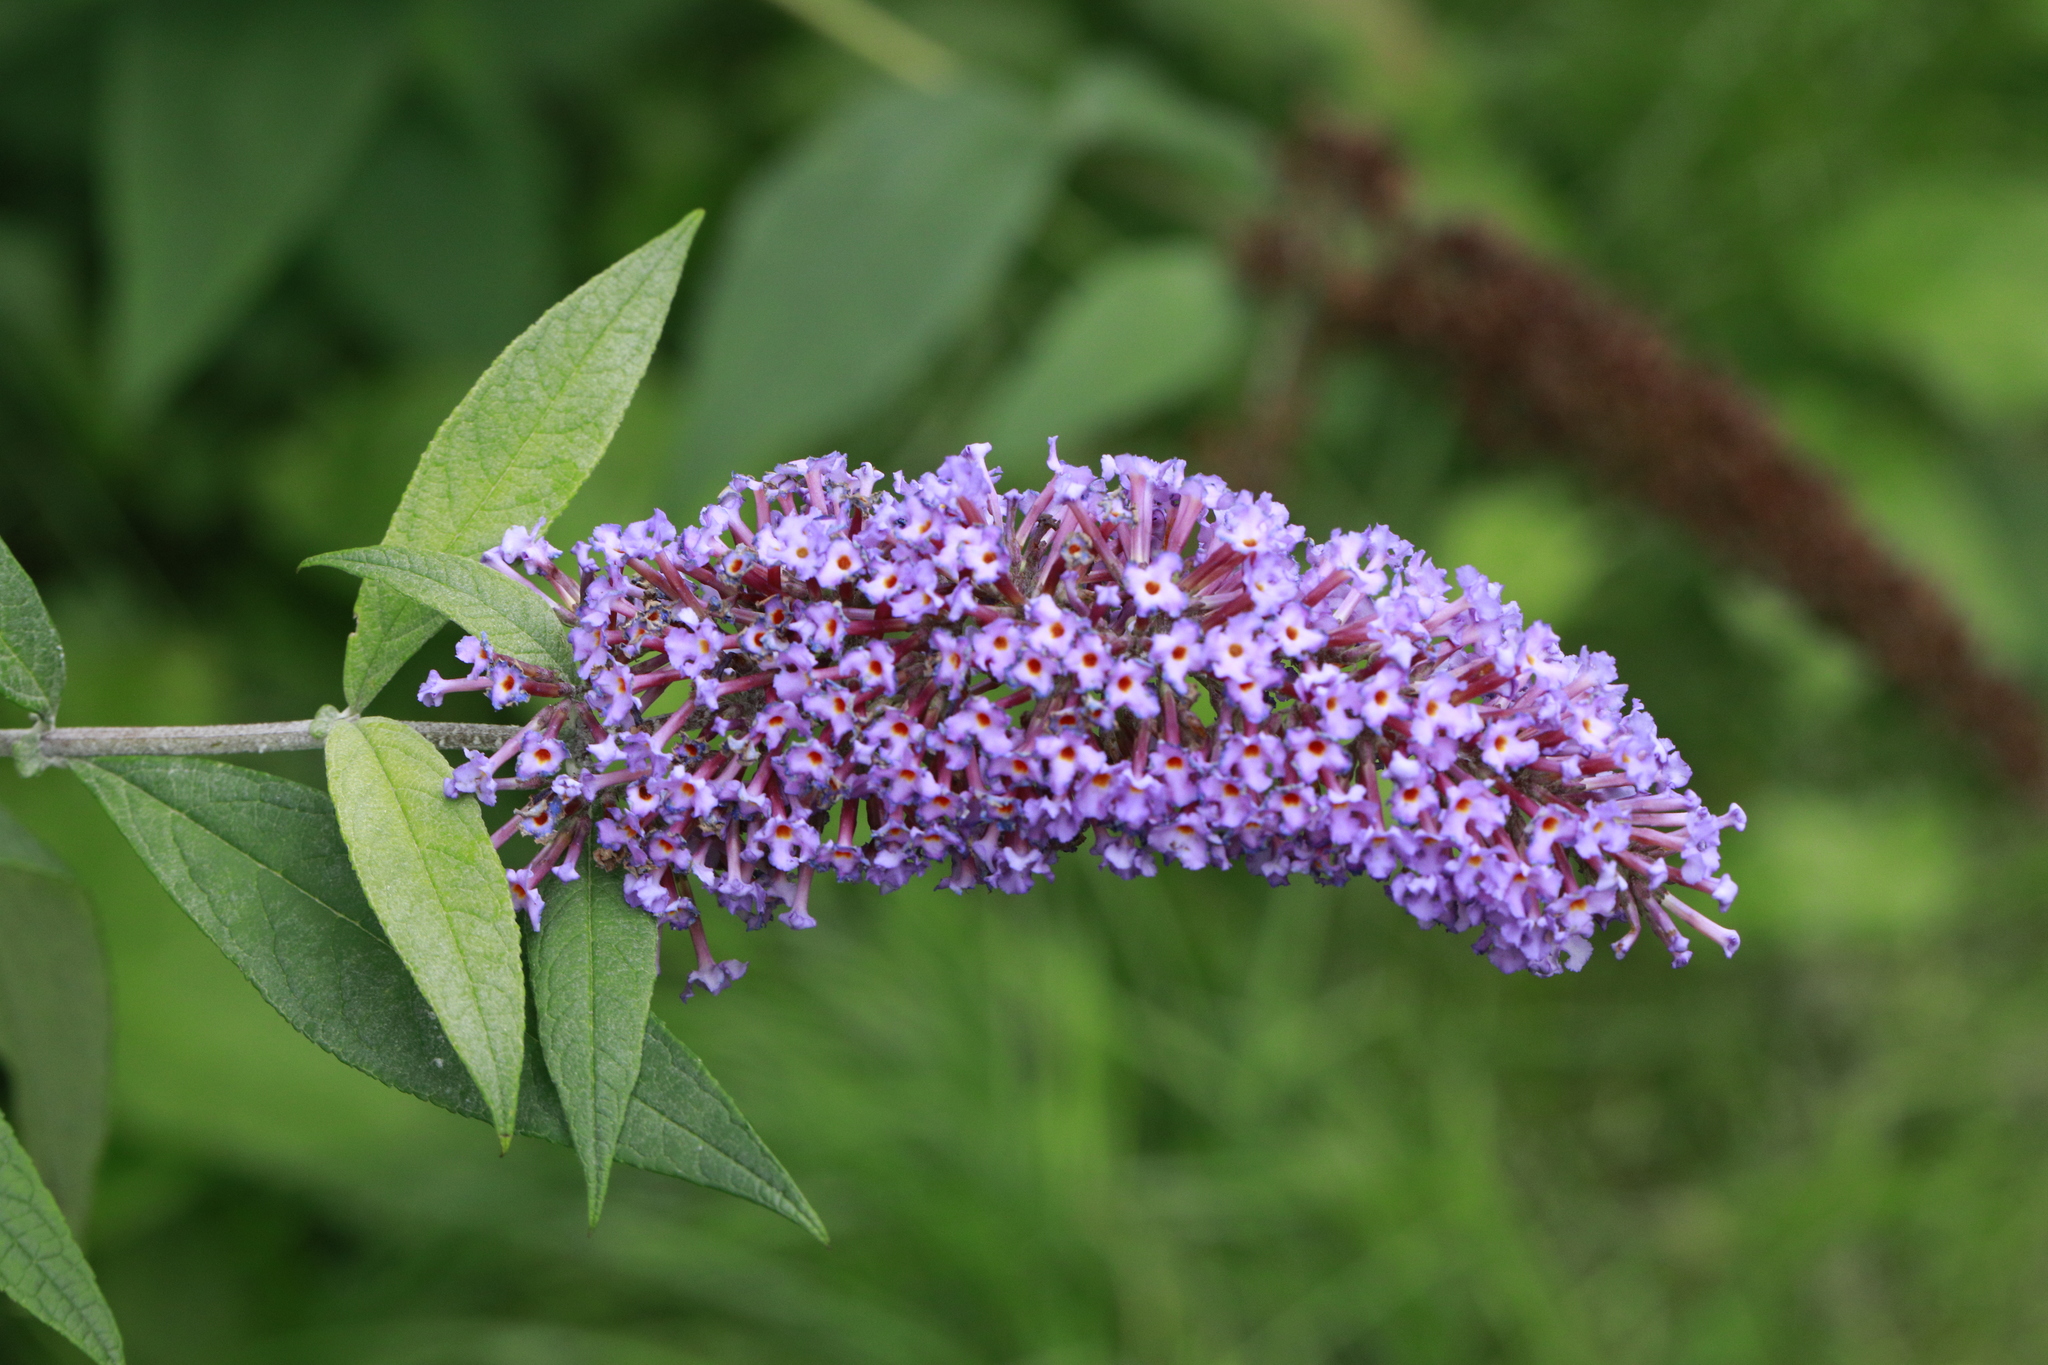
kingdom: Plantae
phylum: Tracheophyta
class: Magnoliopsida
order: Lamiales
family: Scrophulariaceae
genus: Buddleja
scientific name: Buddleja davidii
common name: Butterfly-bush
